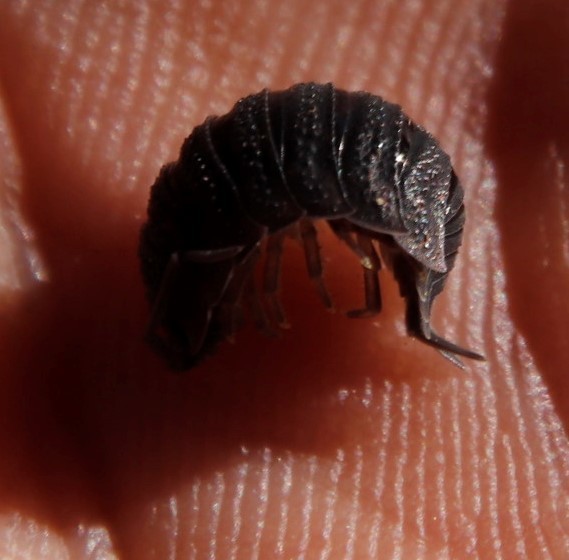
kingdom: Animalia
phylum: Arthropoda
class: Malacostraca
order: Isopoda
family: Porcellionidae
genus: Porcellio
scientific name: Porcellio scaber
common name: Common rough woodlouse
